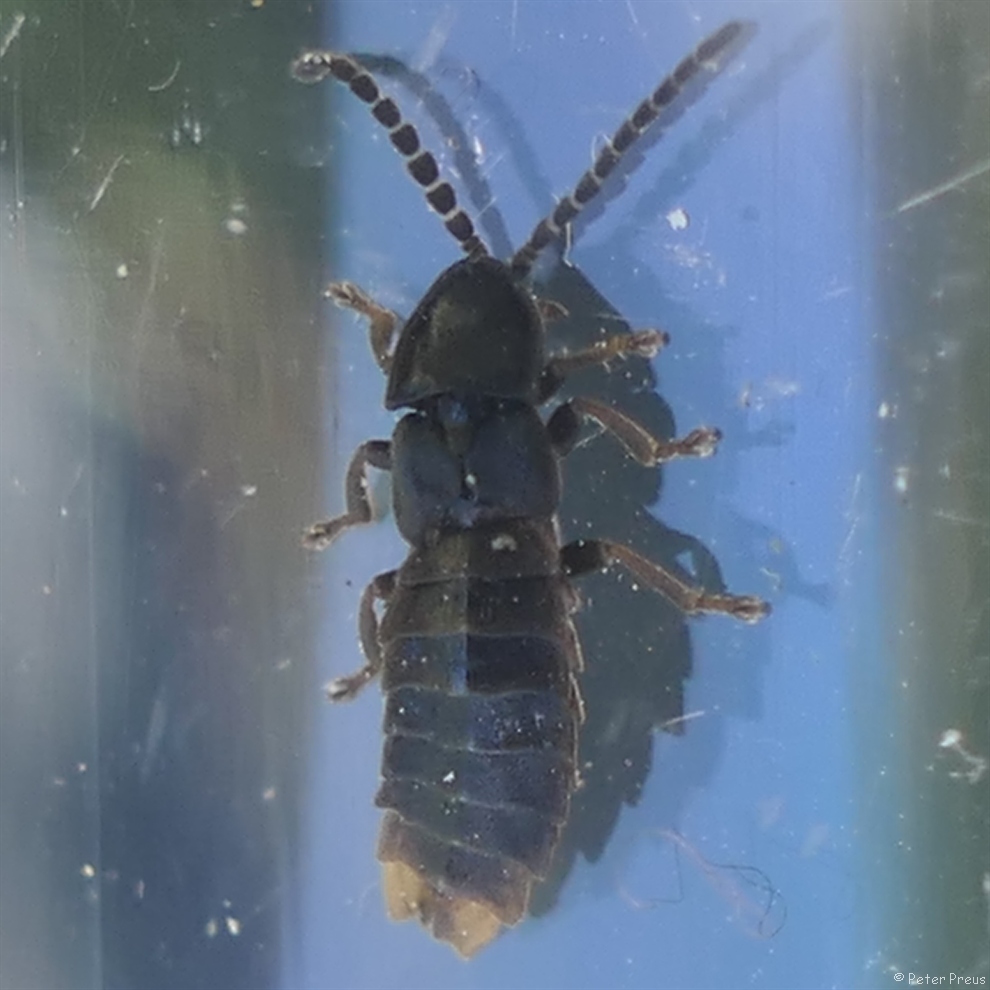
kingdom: Animalia
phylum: Arthropoda
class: Insecta
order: Coleoptera
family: Lampyridae
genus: Phosphaenus
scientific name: Phosphaenus hemipterus
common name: Short-winged firefly
